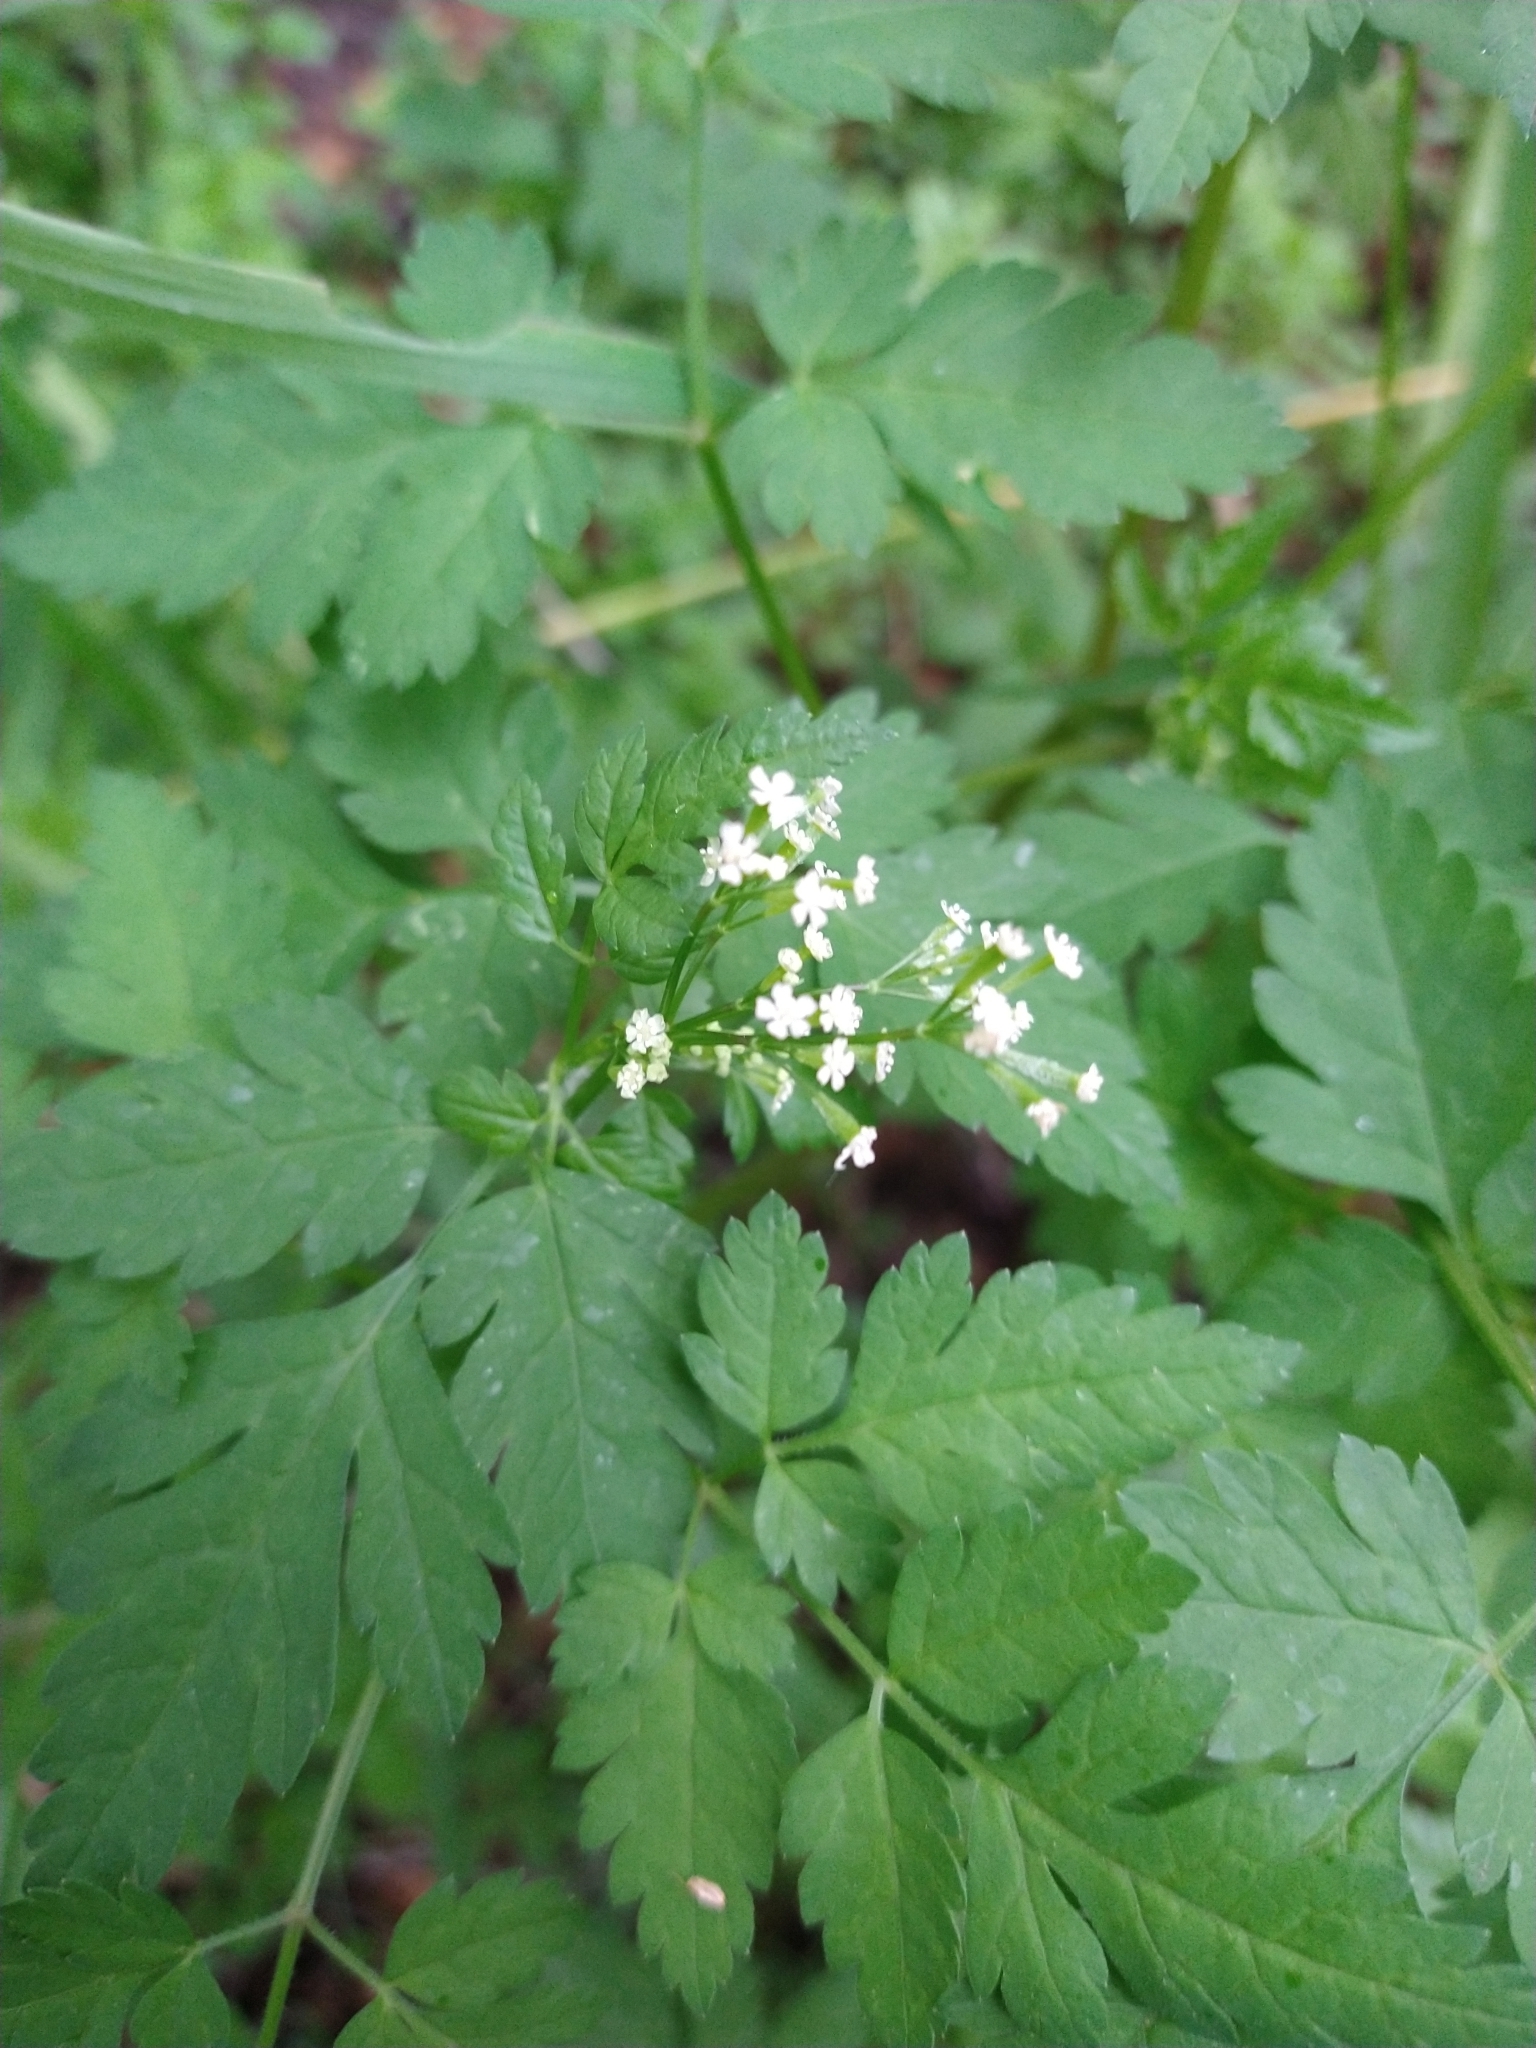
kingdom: Plantae
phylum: Tracheophyta
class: Magnoliopsida
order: Apiales
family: Apiaceae
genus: Osmorhiza
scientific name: Osmorhiza berteroi
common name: Mountain sweet cicely
